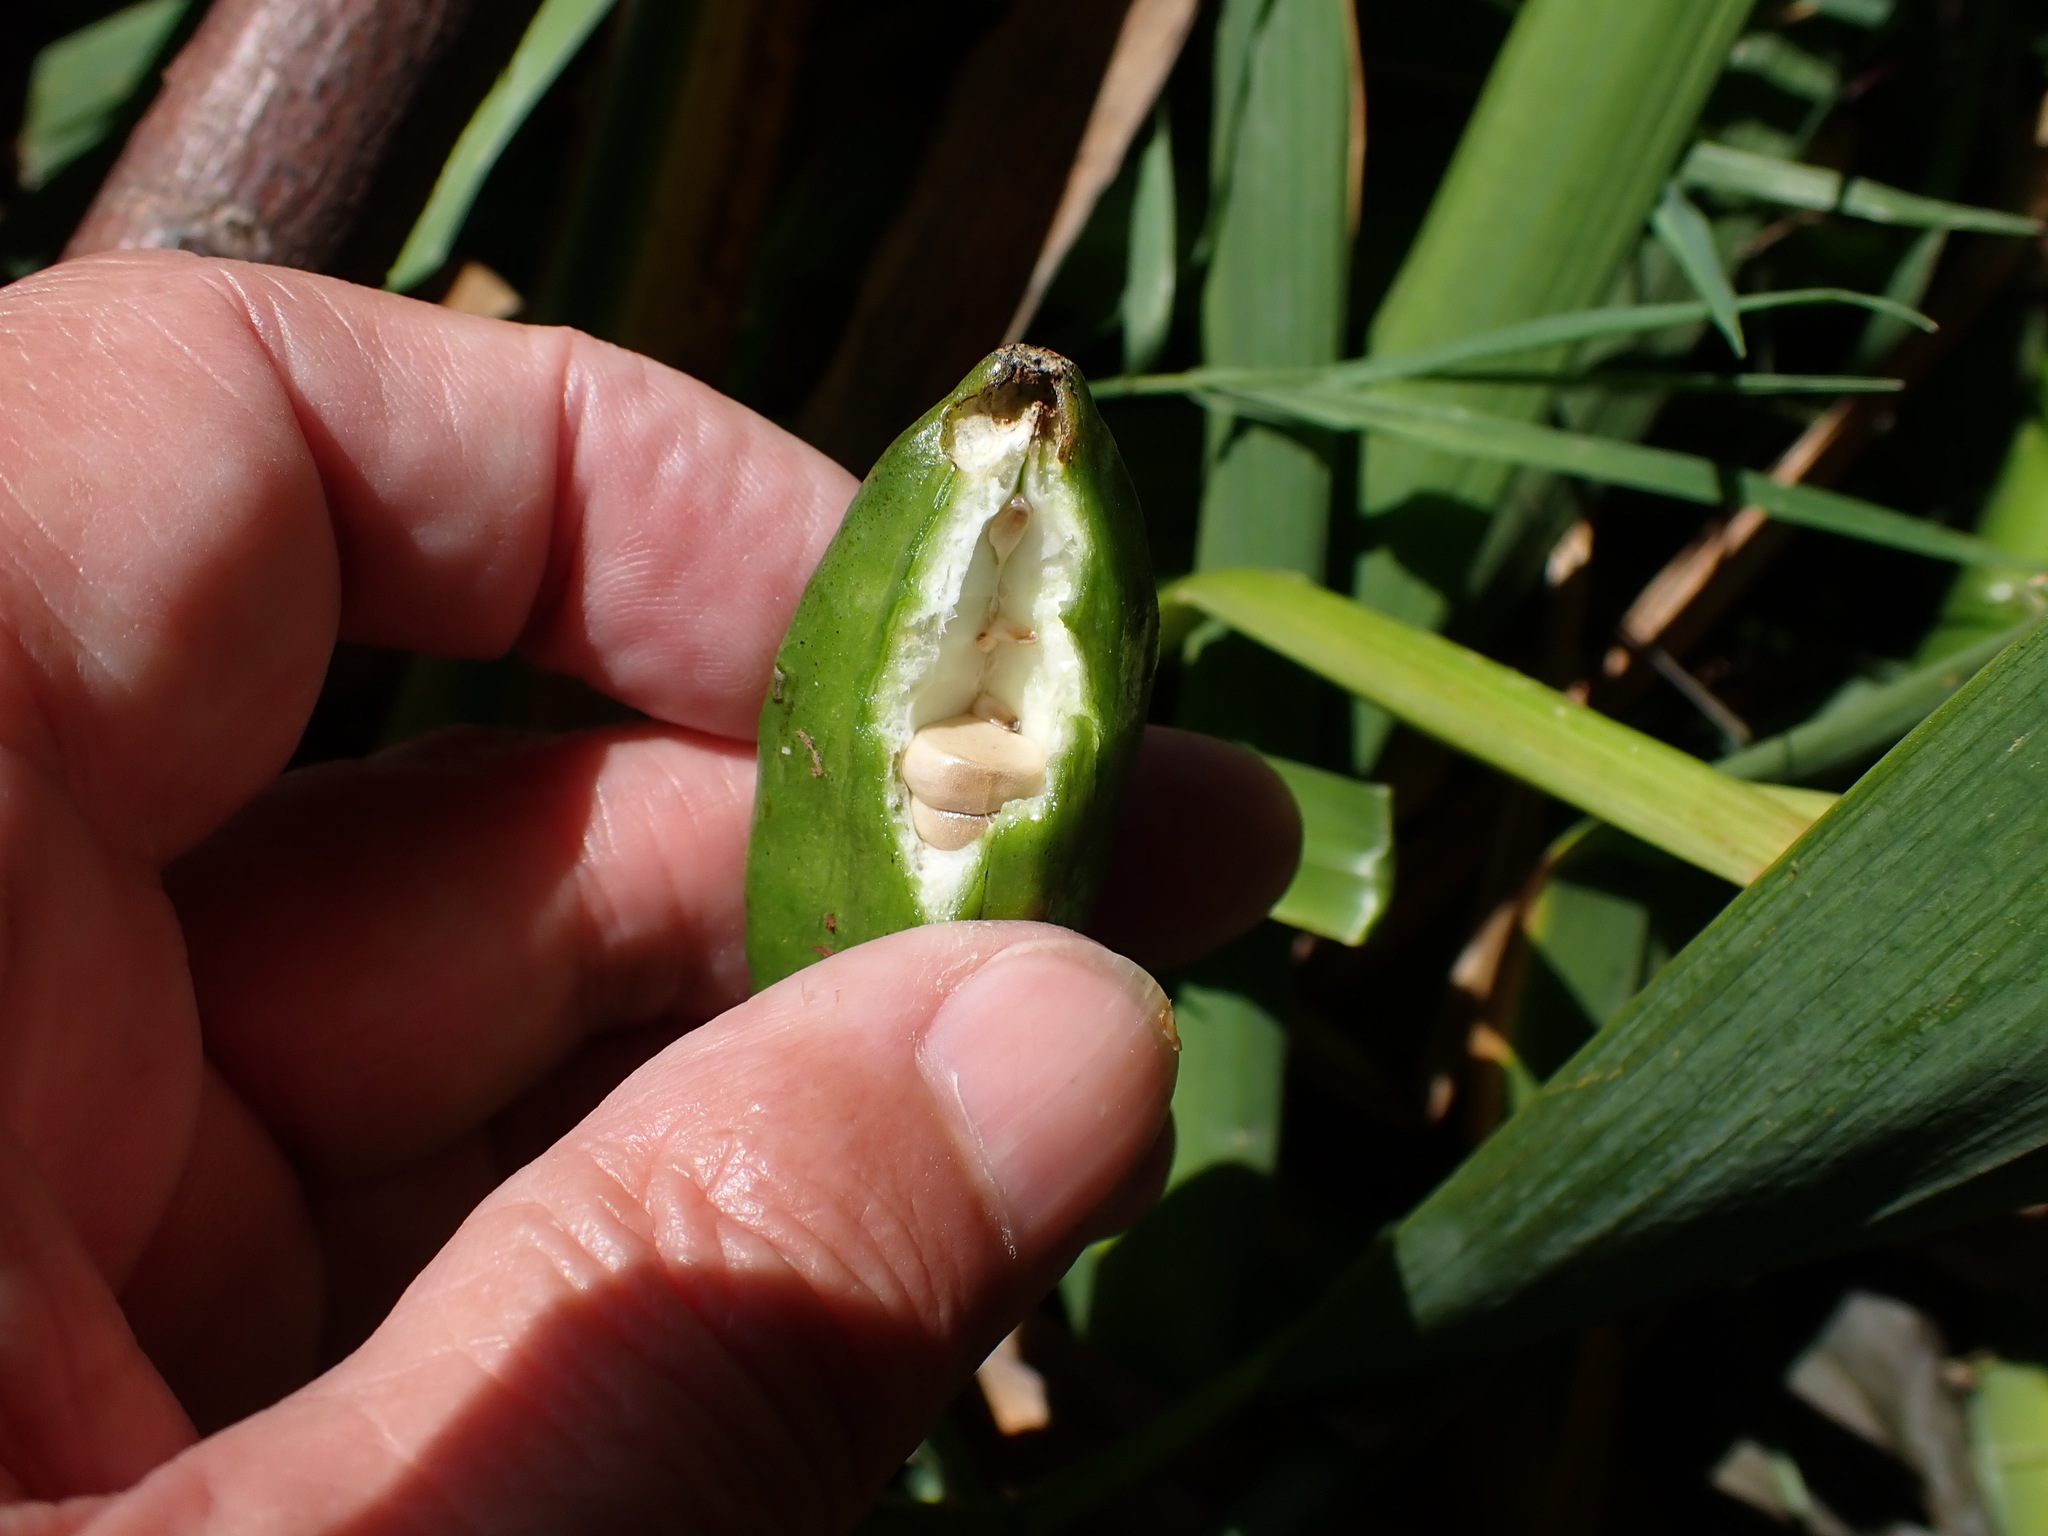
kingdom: Plantae
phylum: Tracheophyta
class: Liliopsida
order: Asparagales
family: Iridaceae
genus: Iris
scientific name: Iris pseudacorus
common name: Yellow flag
